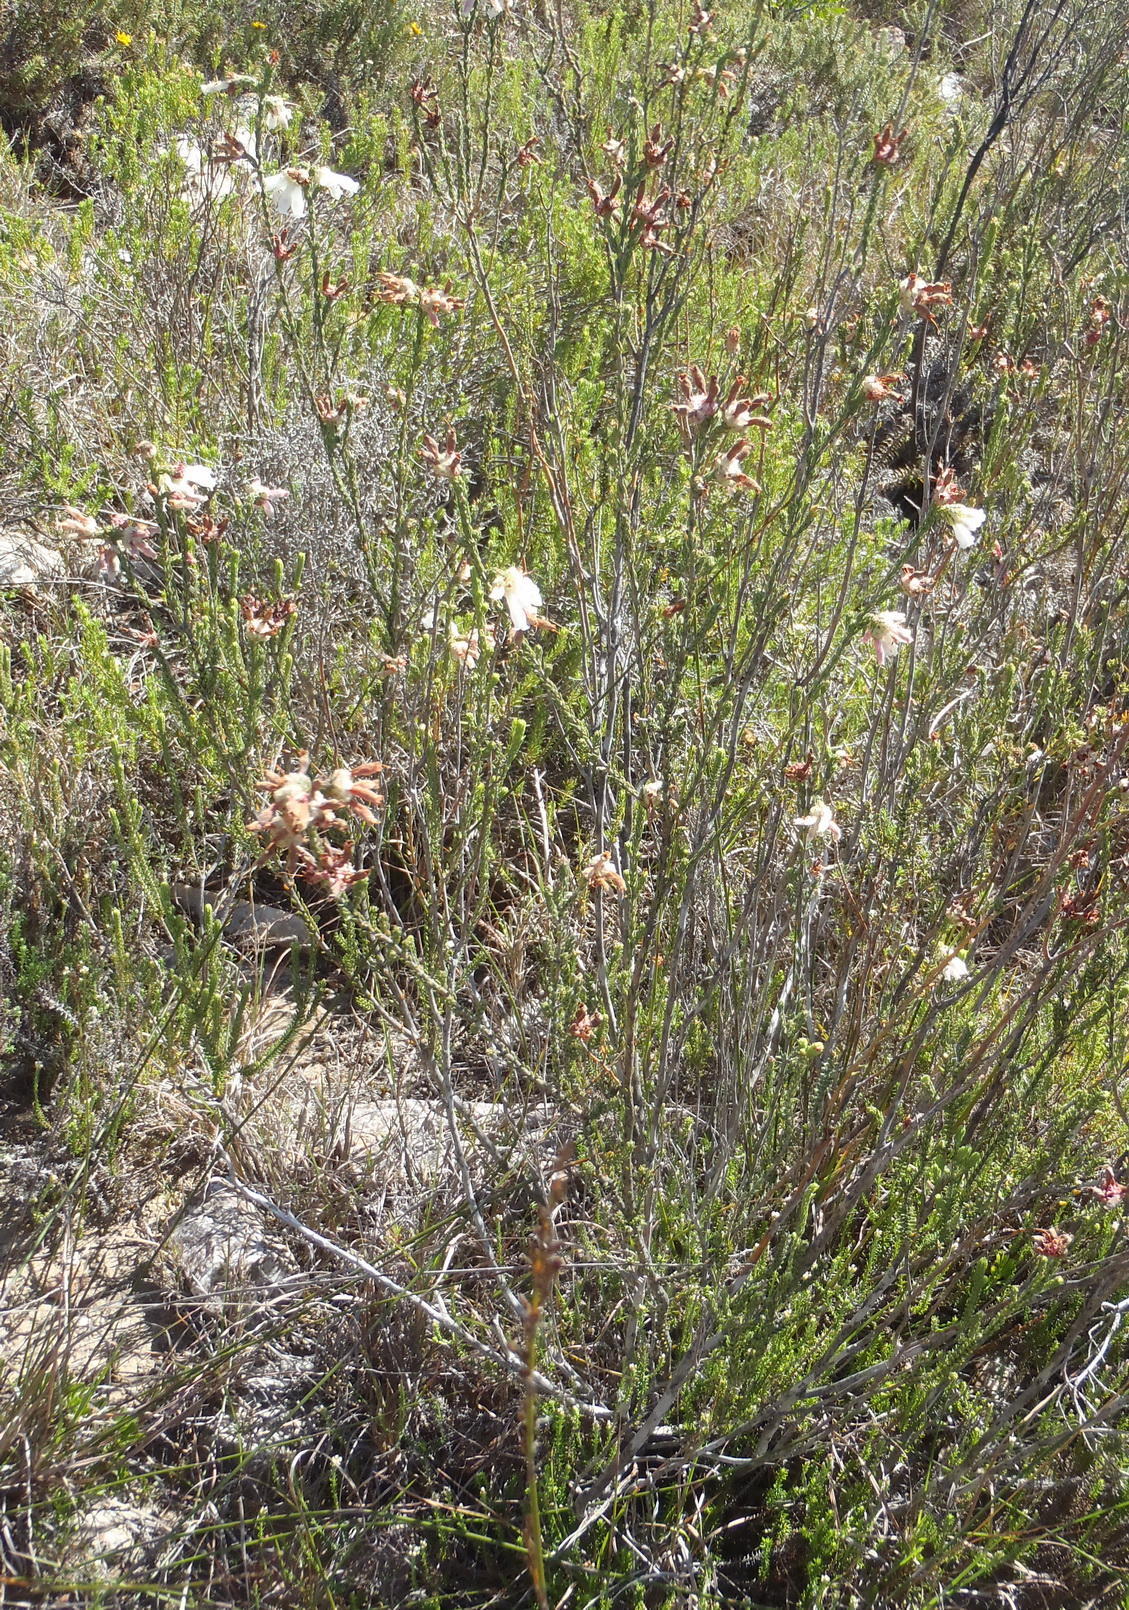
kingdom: Plantae
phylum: Tracheophyta
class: Magnoliopsida
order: Ericales
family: Ericaceae
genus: Erica
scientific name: Erica pectinifolia
